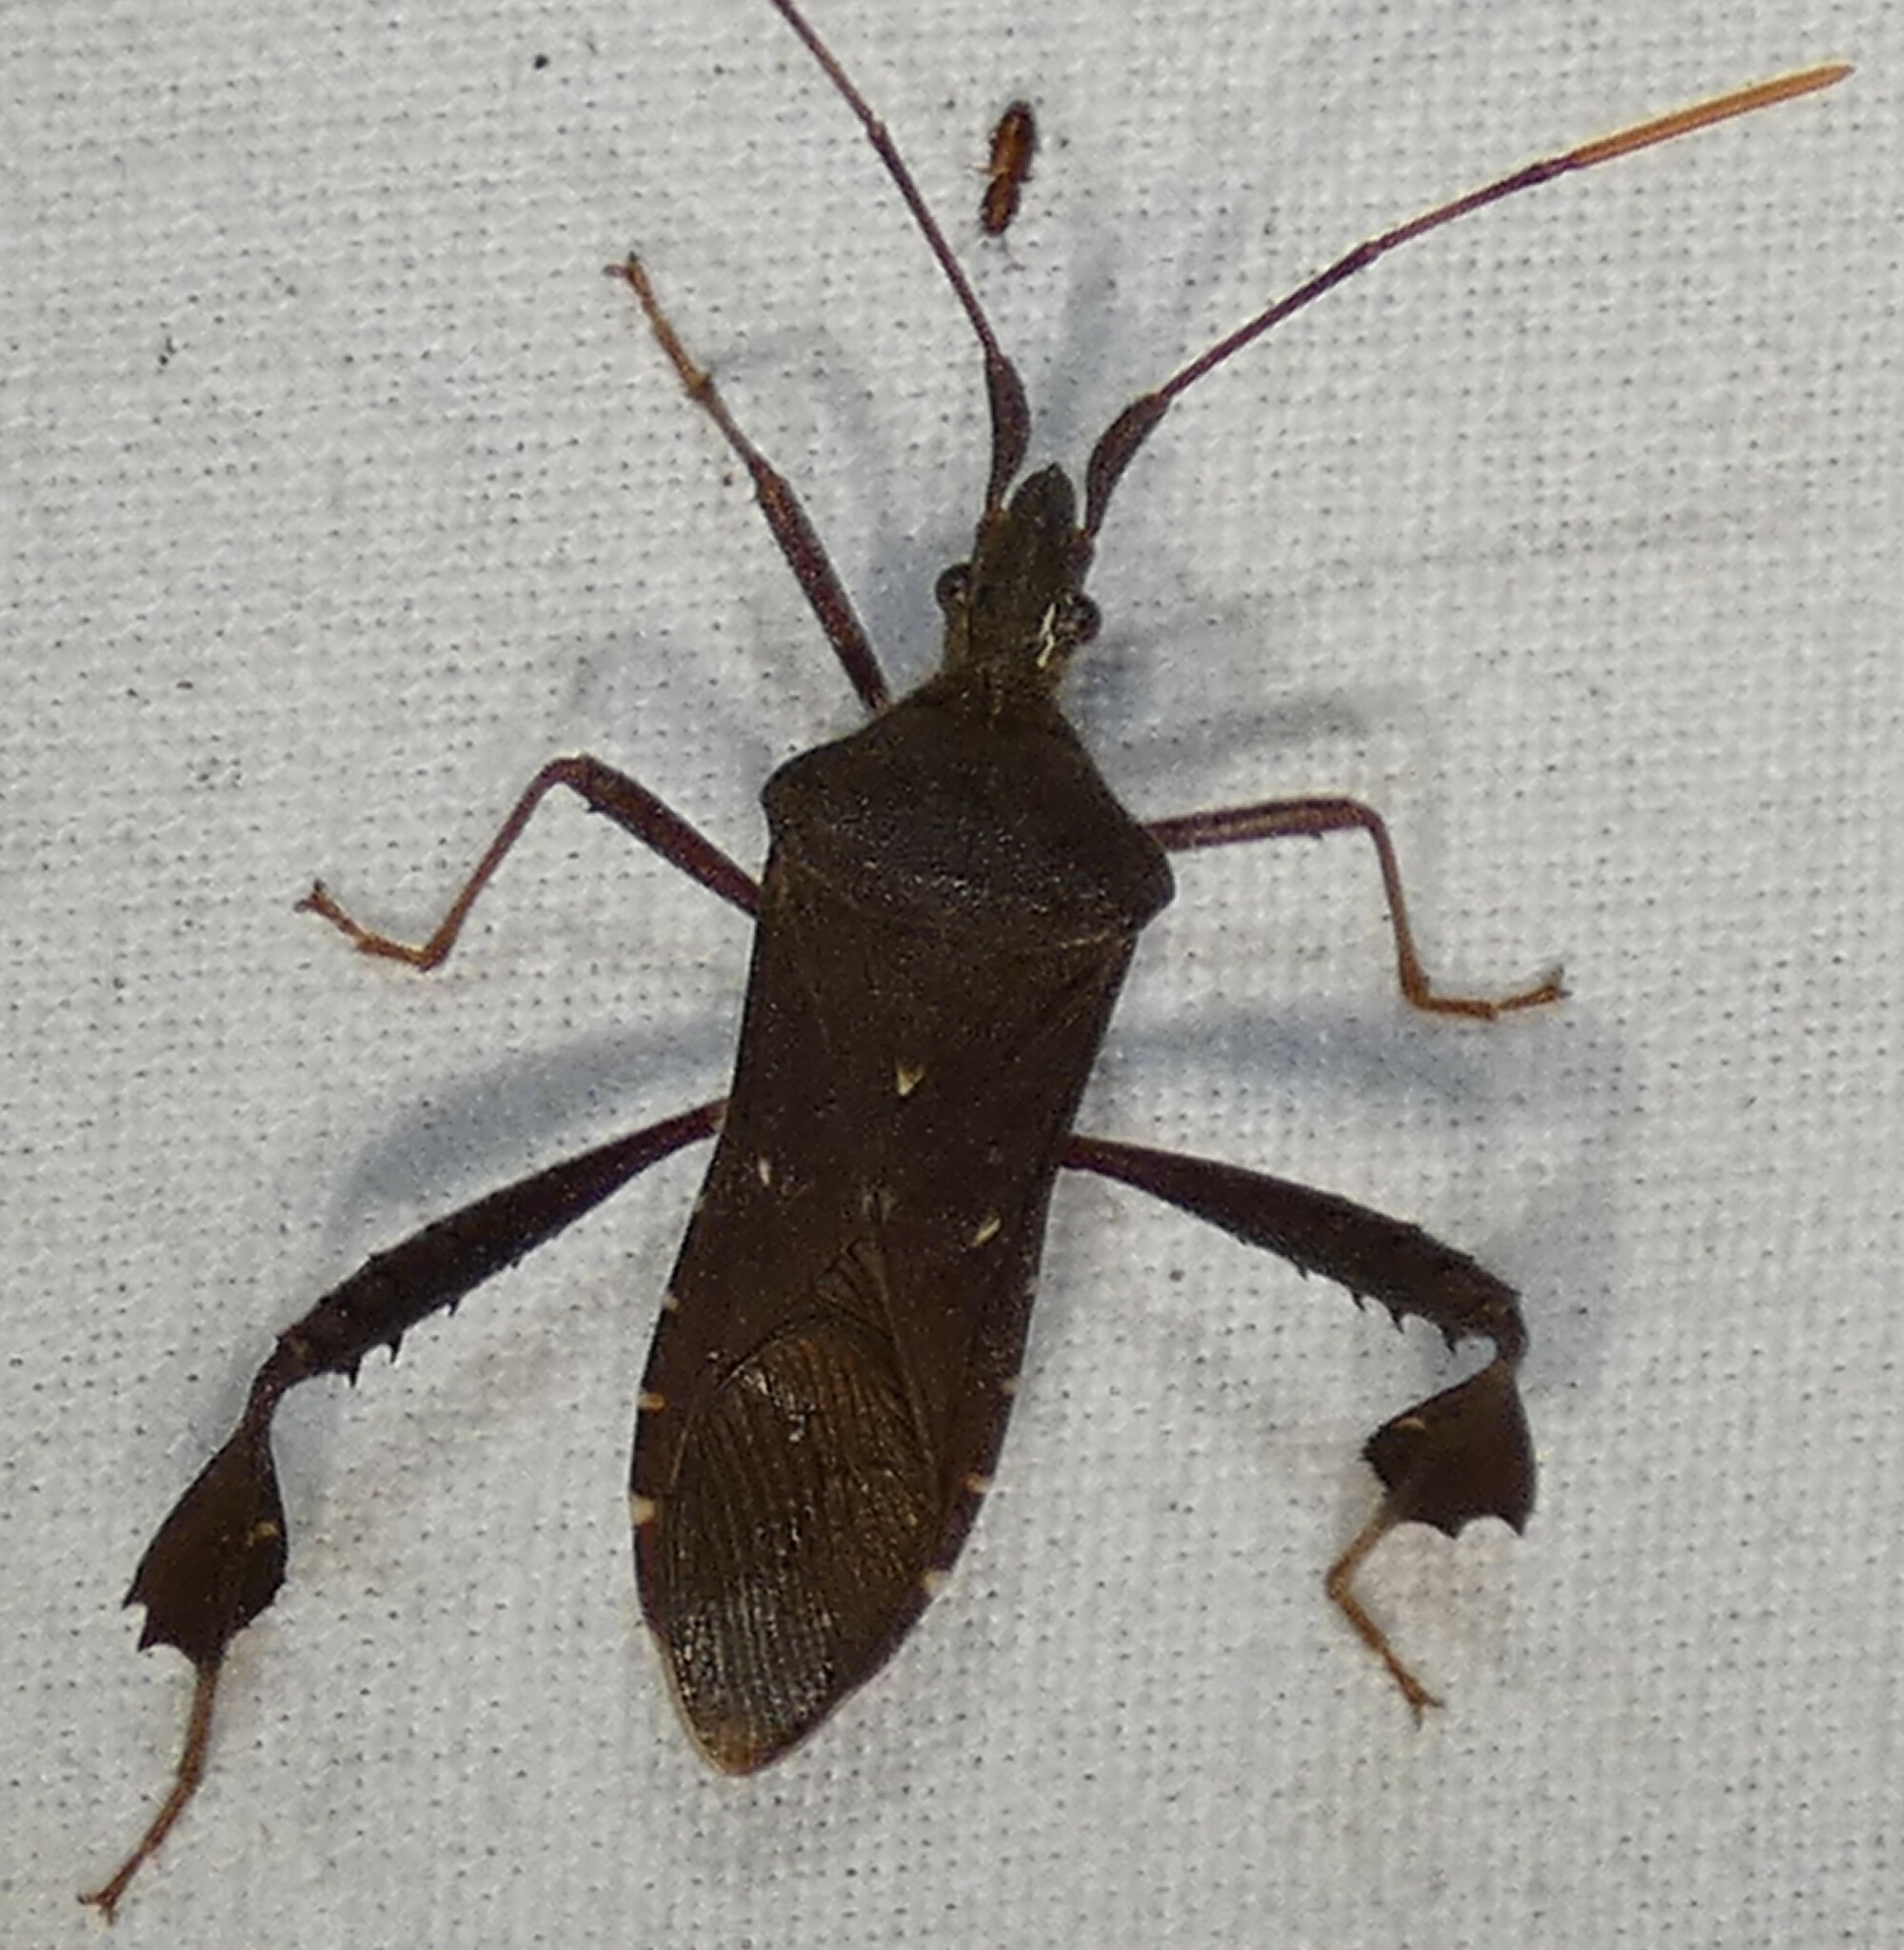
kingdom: Animalia
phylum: Arthropoda
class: Insecta
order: Hemiptera
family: Coreidae
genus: Leptoglossus
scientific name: Leptoglossus oppositus
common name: Northern leaf-footed bug
